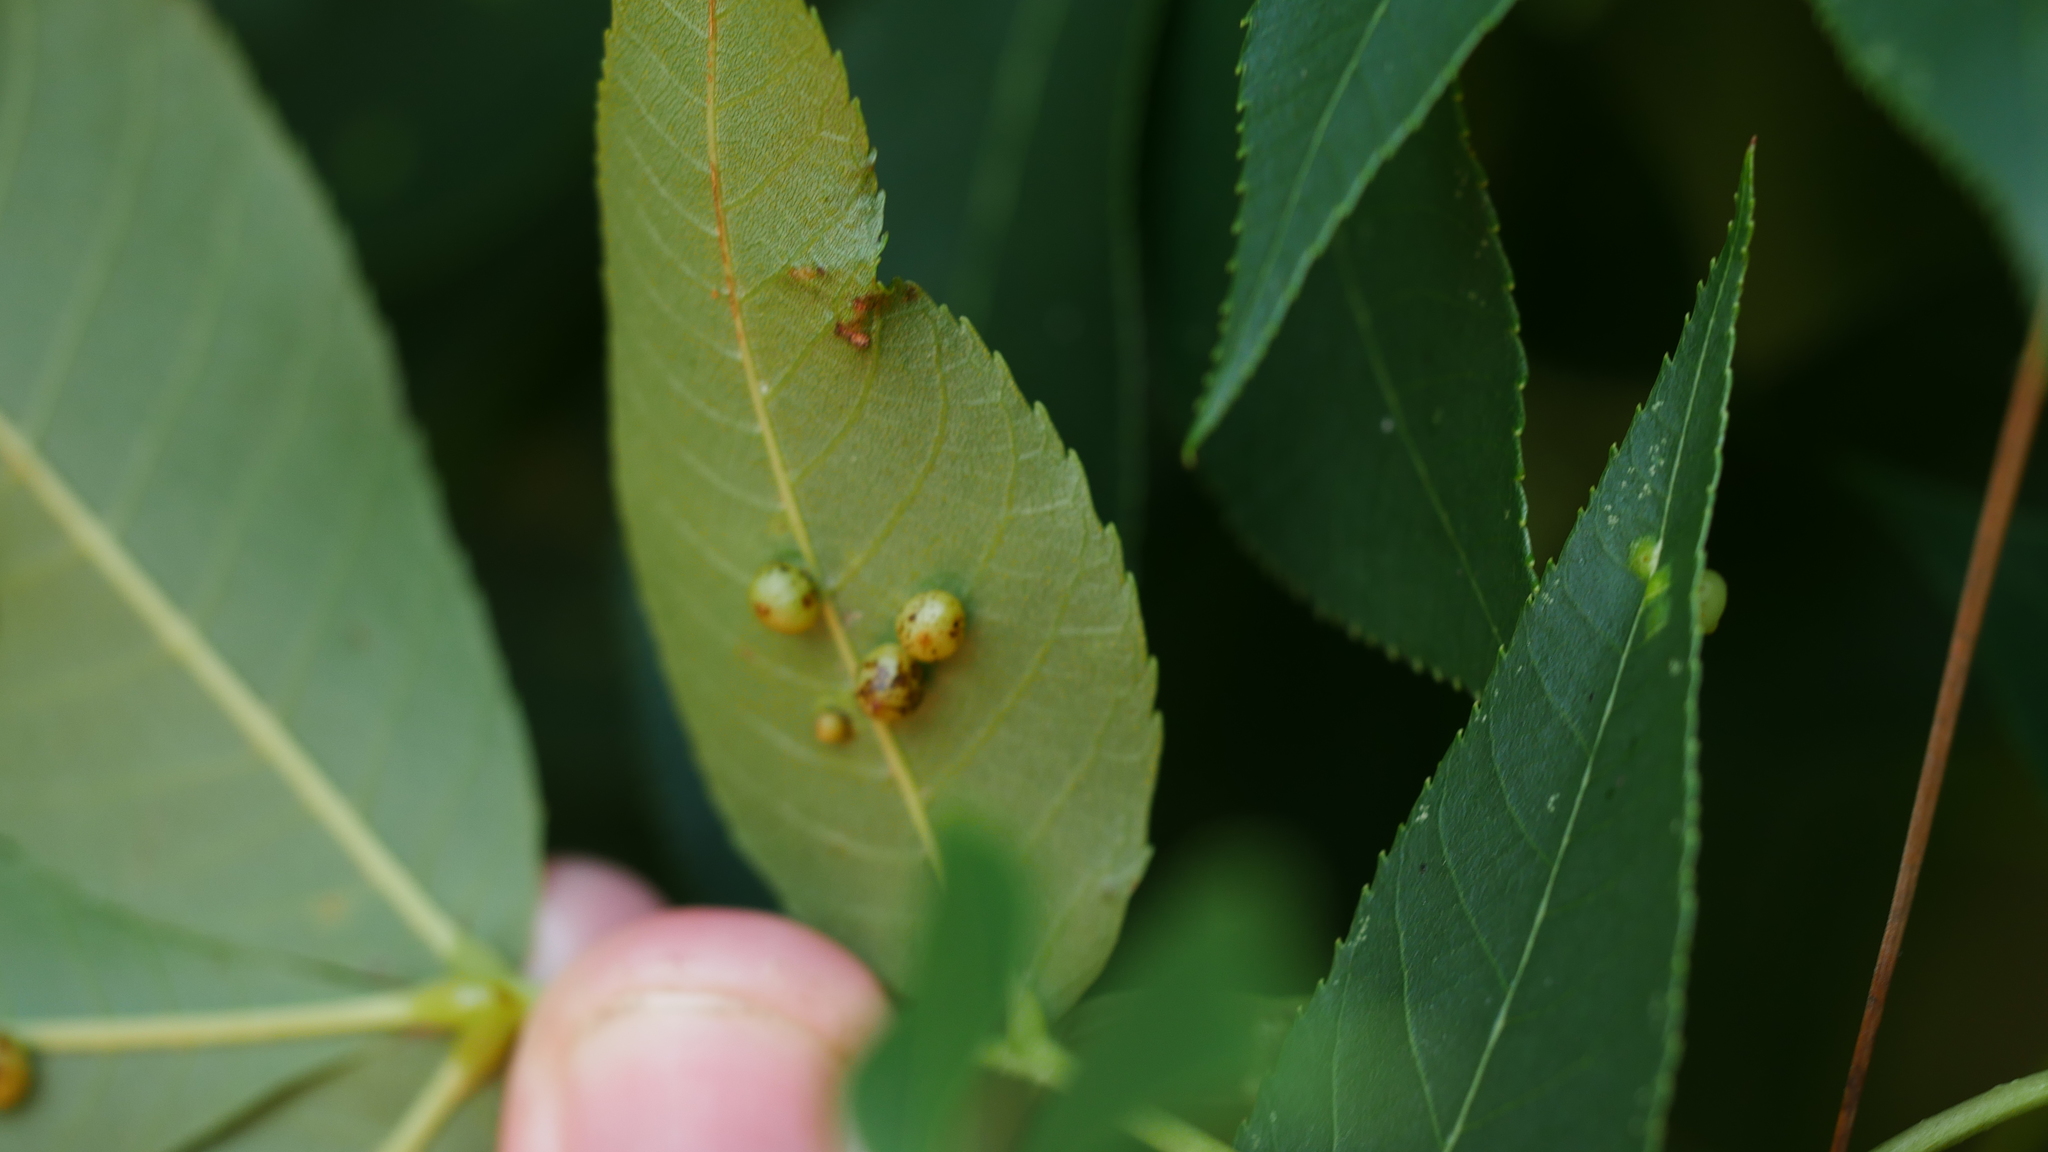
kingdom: Animalia
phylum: Arthropoda
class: Insecta
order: Diptera
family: Cecidomyiidae
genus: Caryomyia
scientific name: Caryomyia caryae
